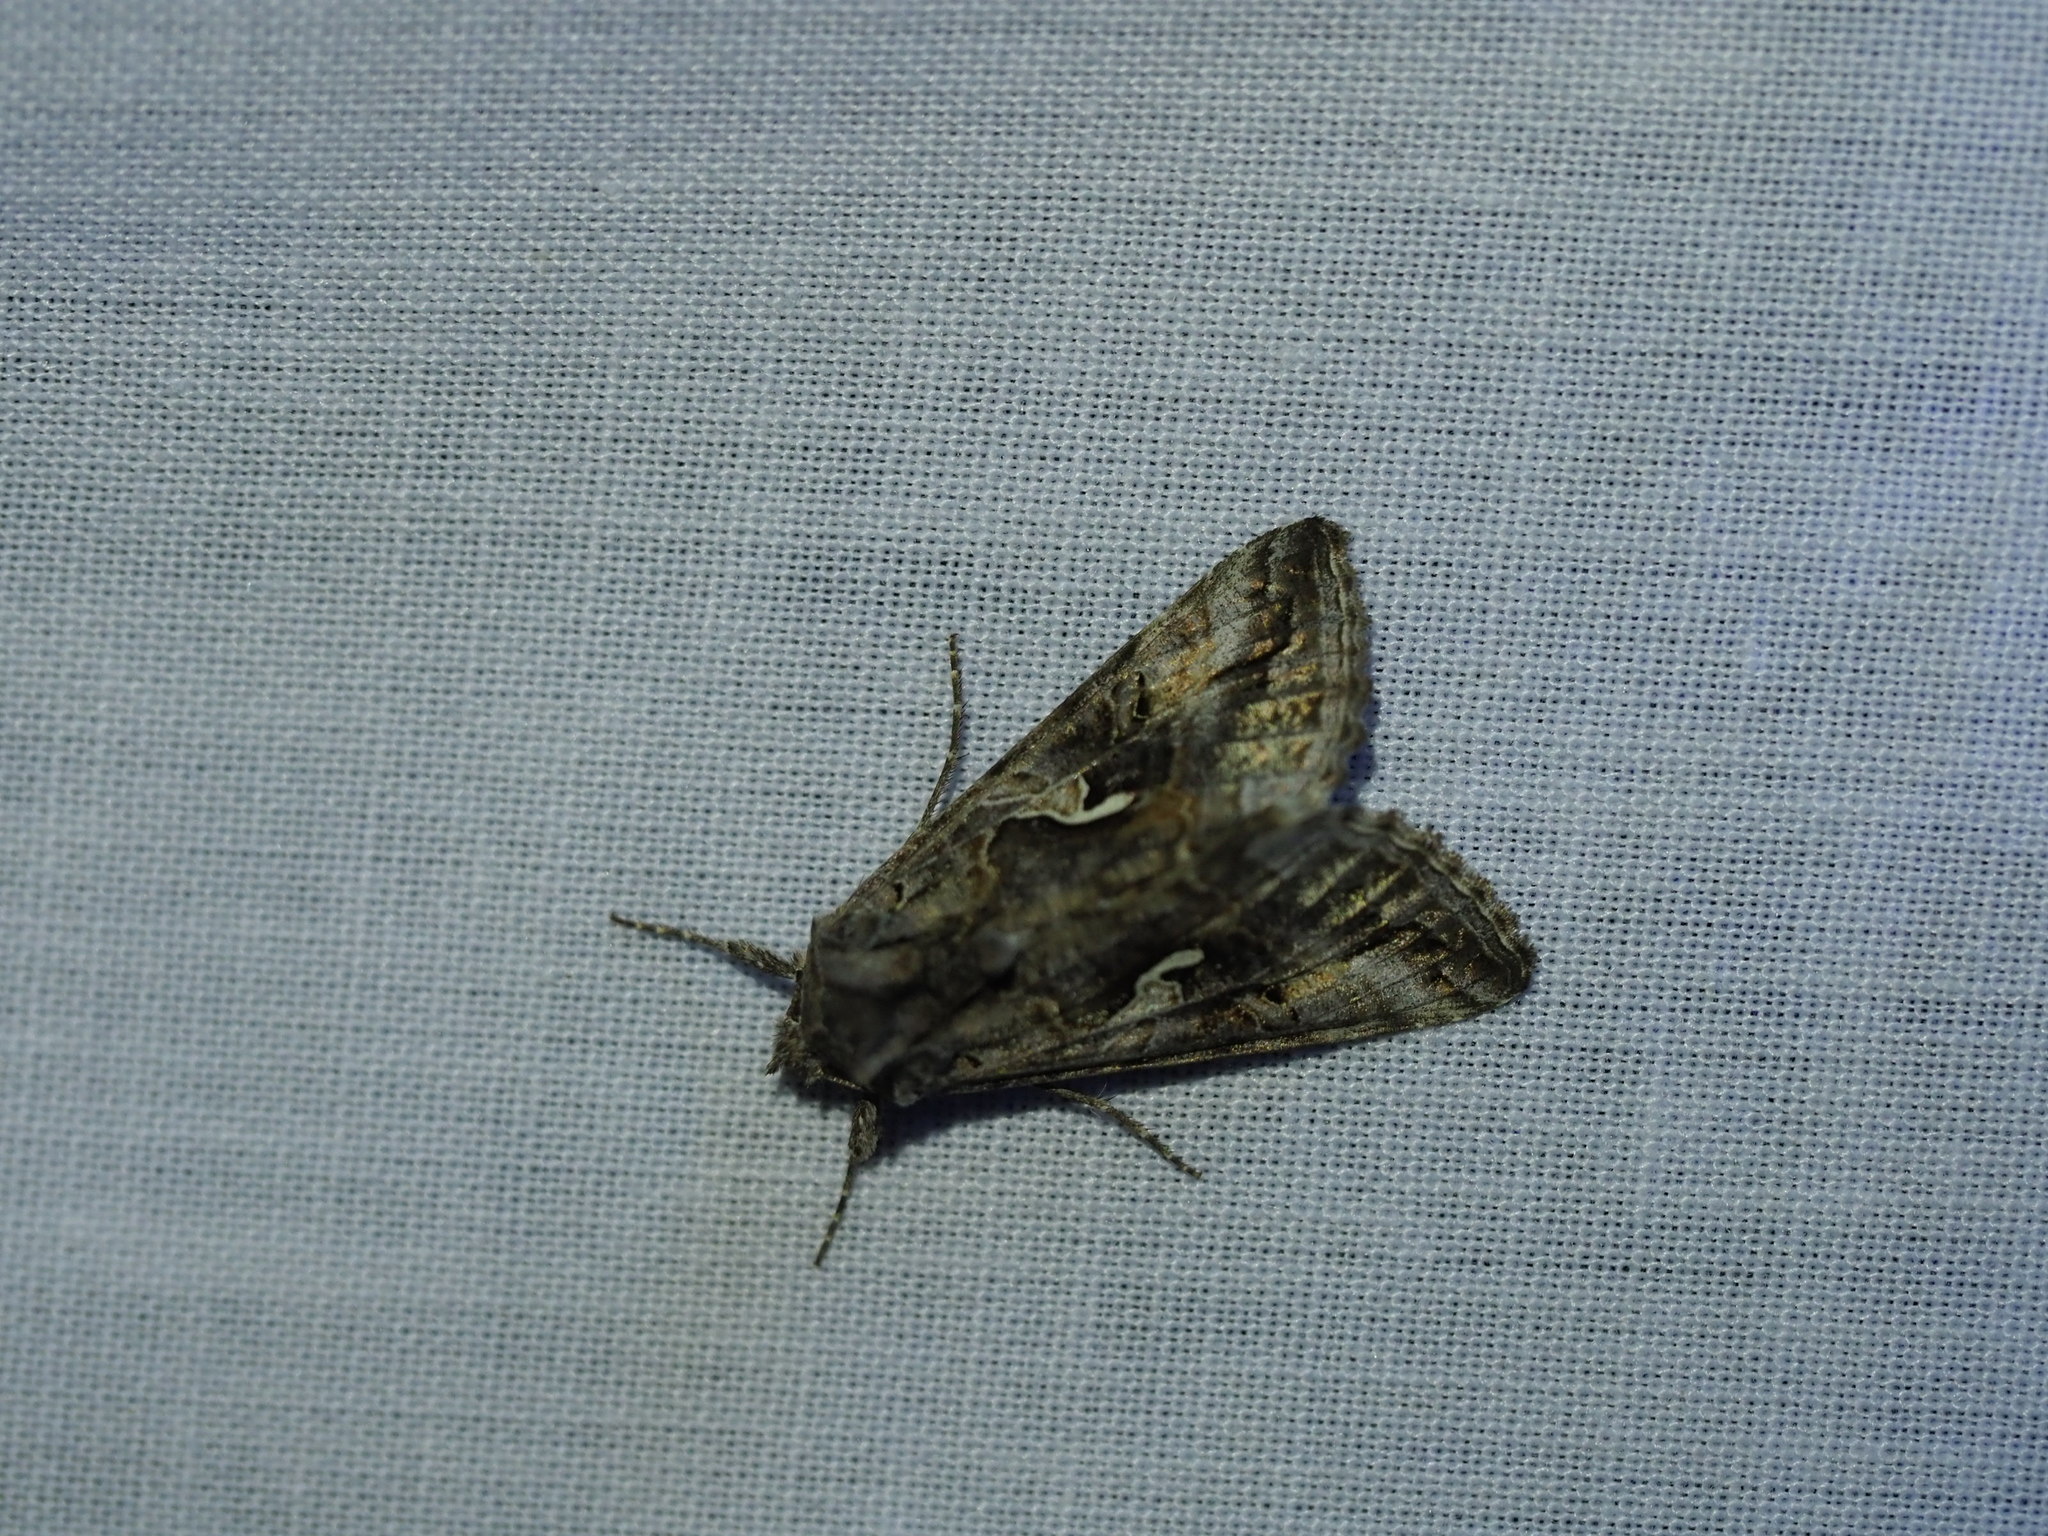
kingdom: Animalia
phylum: Arthropoda
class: Insecta
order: Lepidoptera
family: Noctuidae
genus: Autographa
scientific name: Autographa californica
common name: Alfalfa looper
